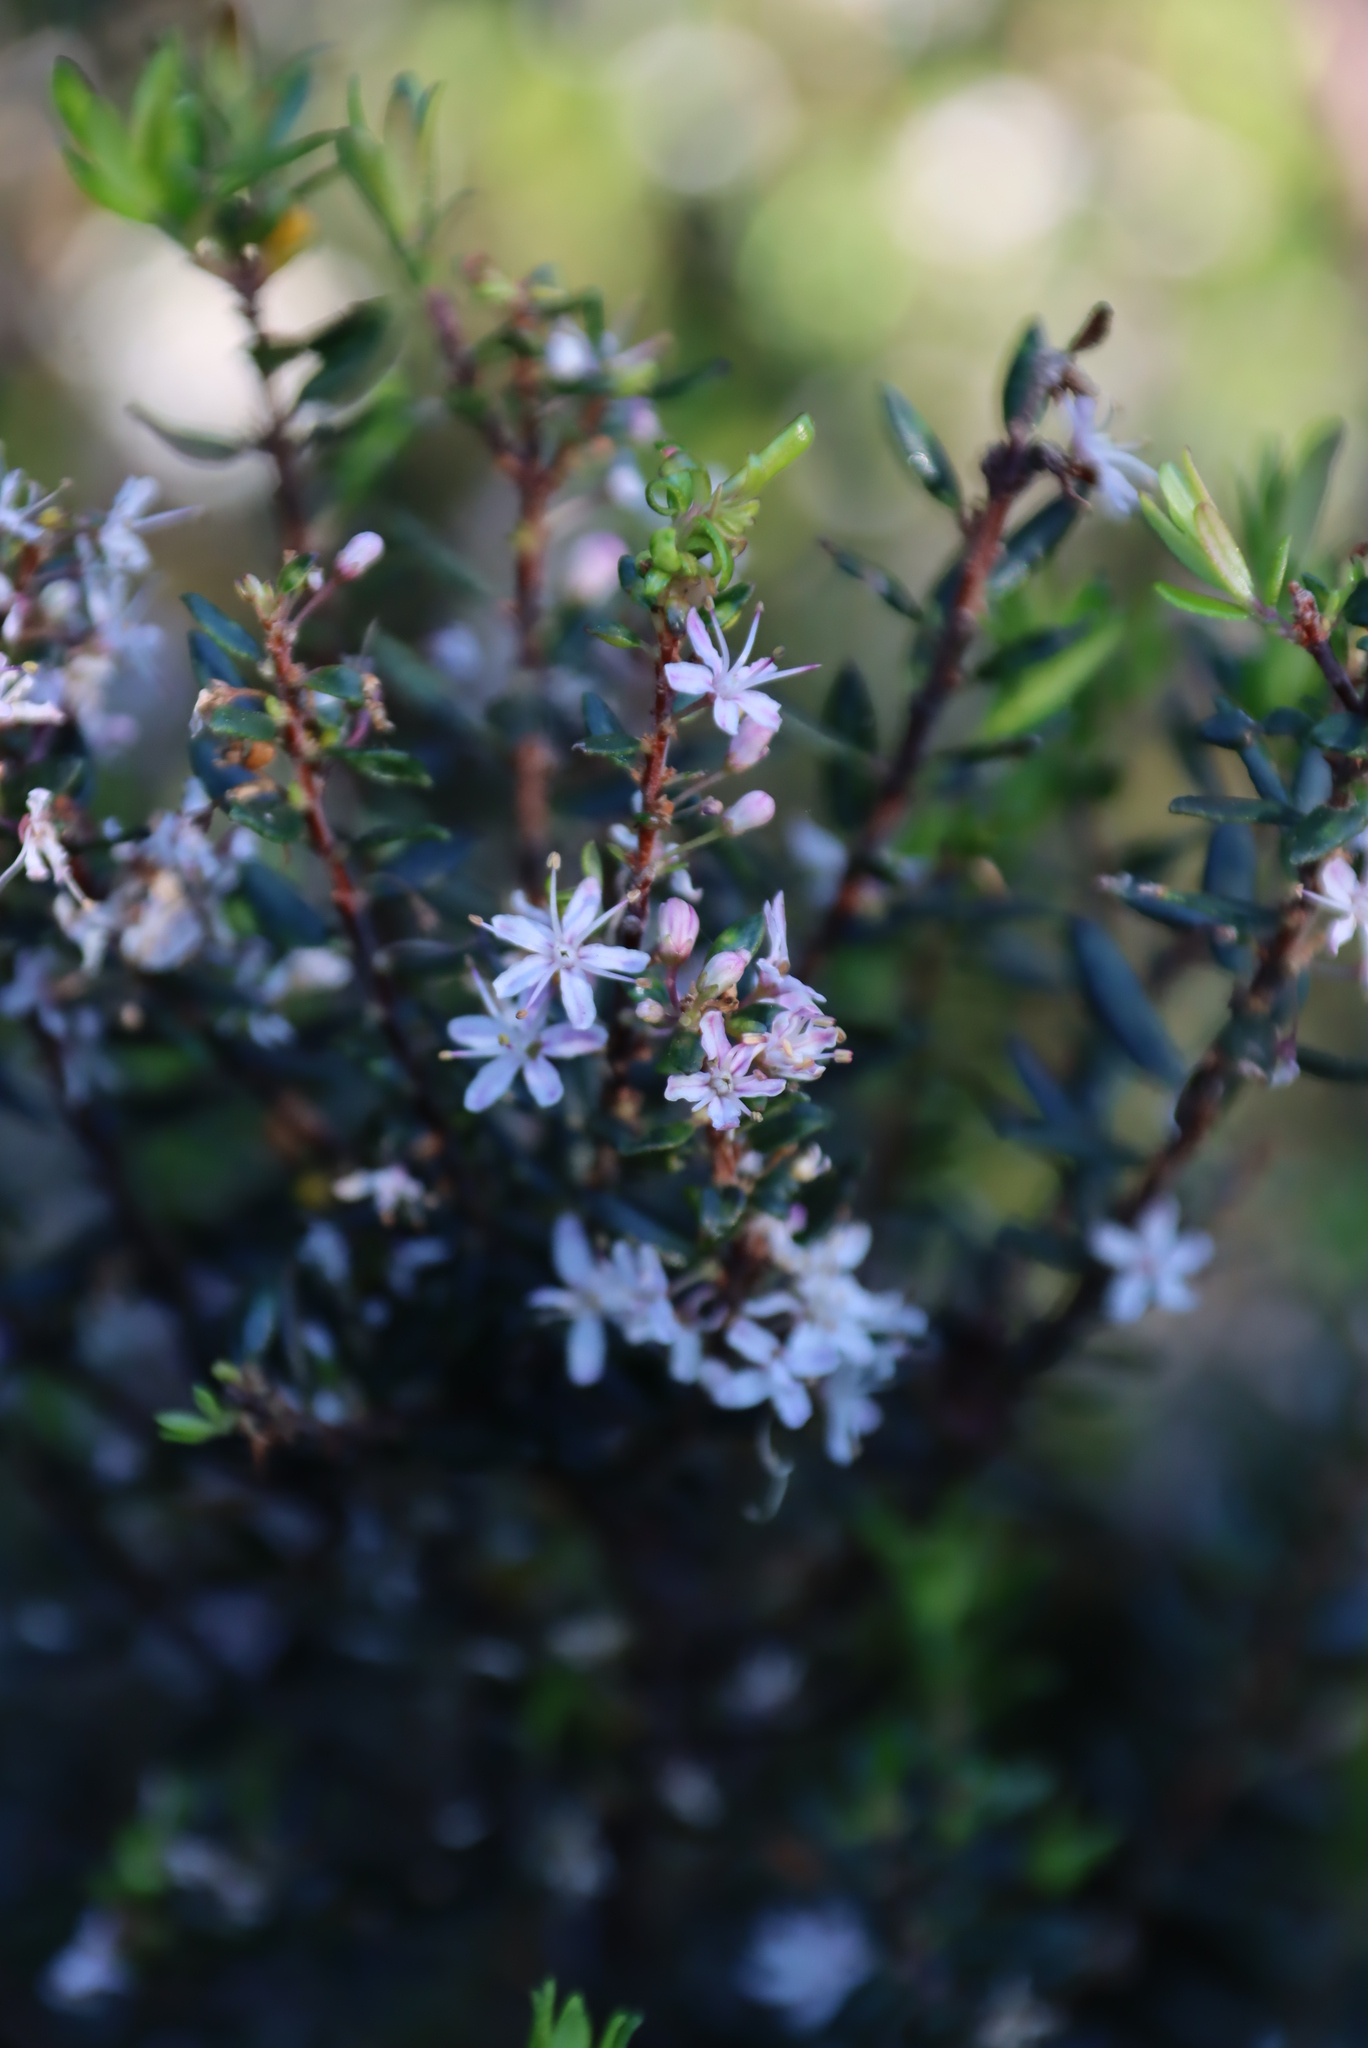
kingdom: Plantae
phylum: Tracheophyta
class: Magnoliopsida
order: Sapindales
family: Rutaceae
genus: Agathosma
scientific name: Agathosma ovata
